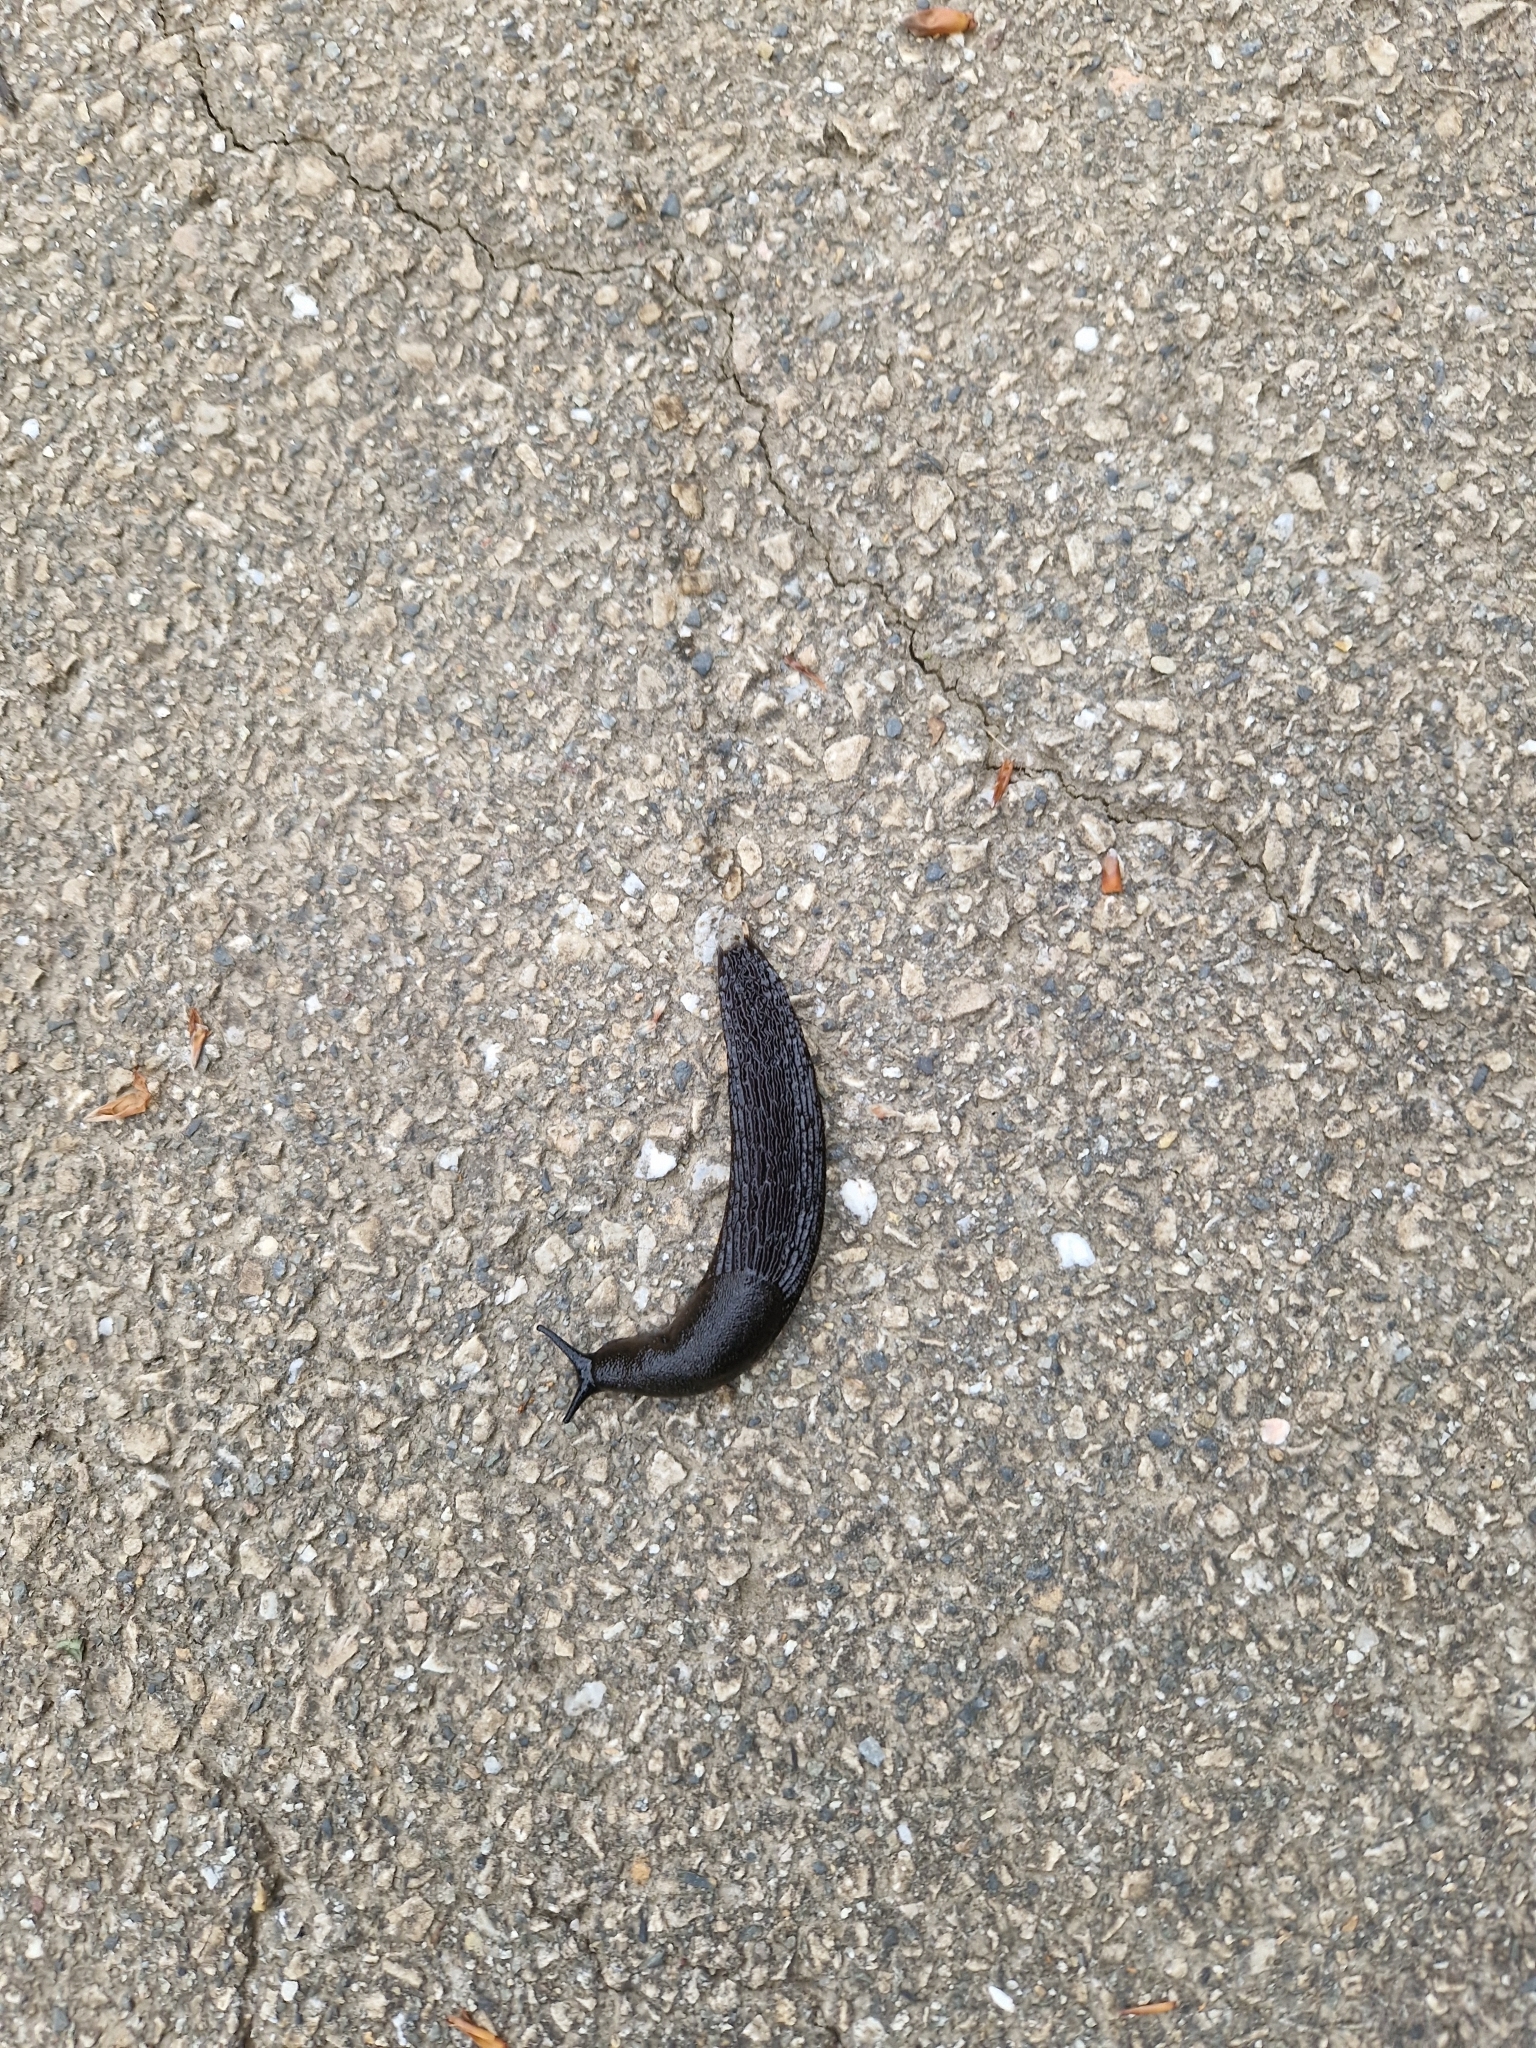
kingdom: Animalia
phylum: Mollusca
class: Gastropoda
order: Stylommatophora
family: Arionidae
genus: Arion
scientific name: Arion ater
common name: Black arion
